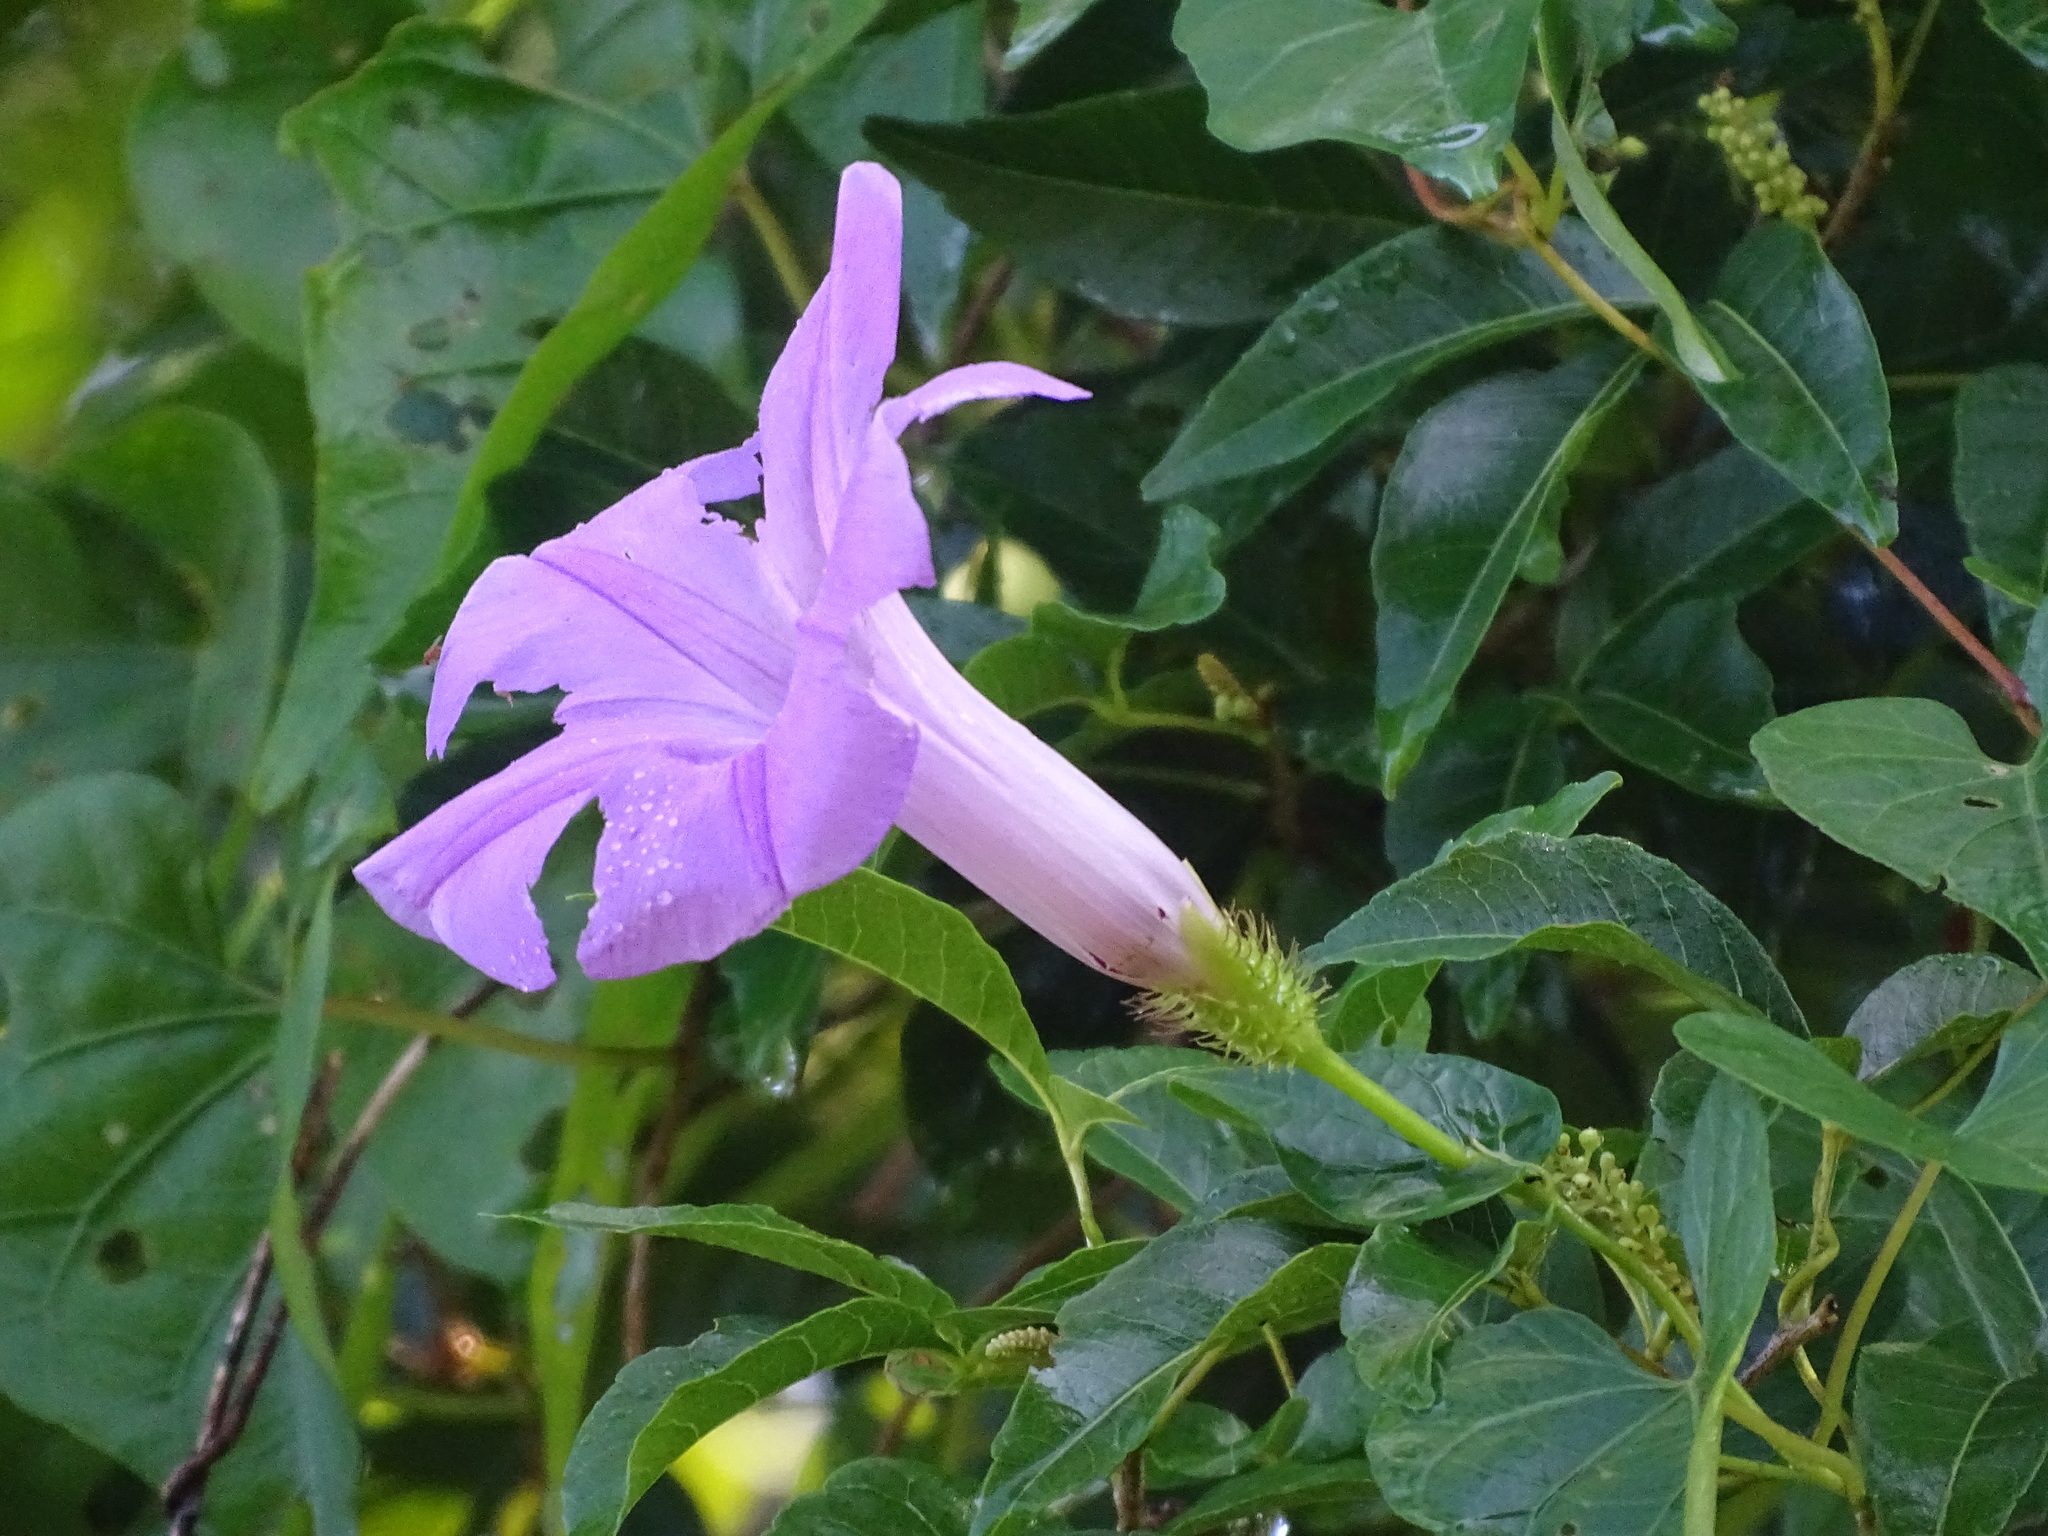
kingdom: Plantae
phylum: Tracheophyta
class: Magnoliopsida
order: Solanales
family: Convolvulaceae
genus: Ipomoea
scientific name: Ipomoea crinicalyx
